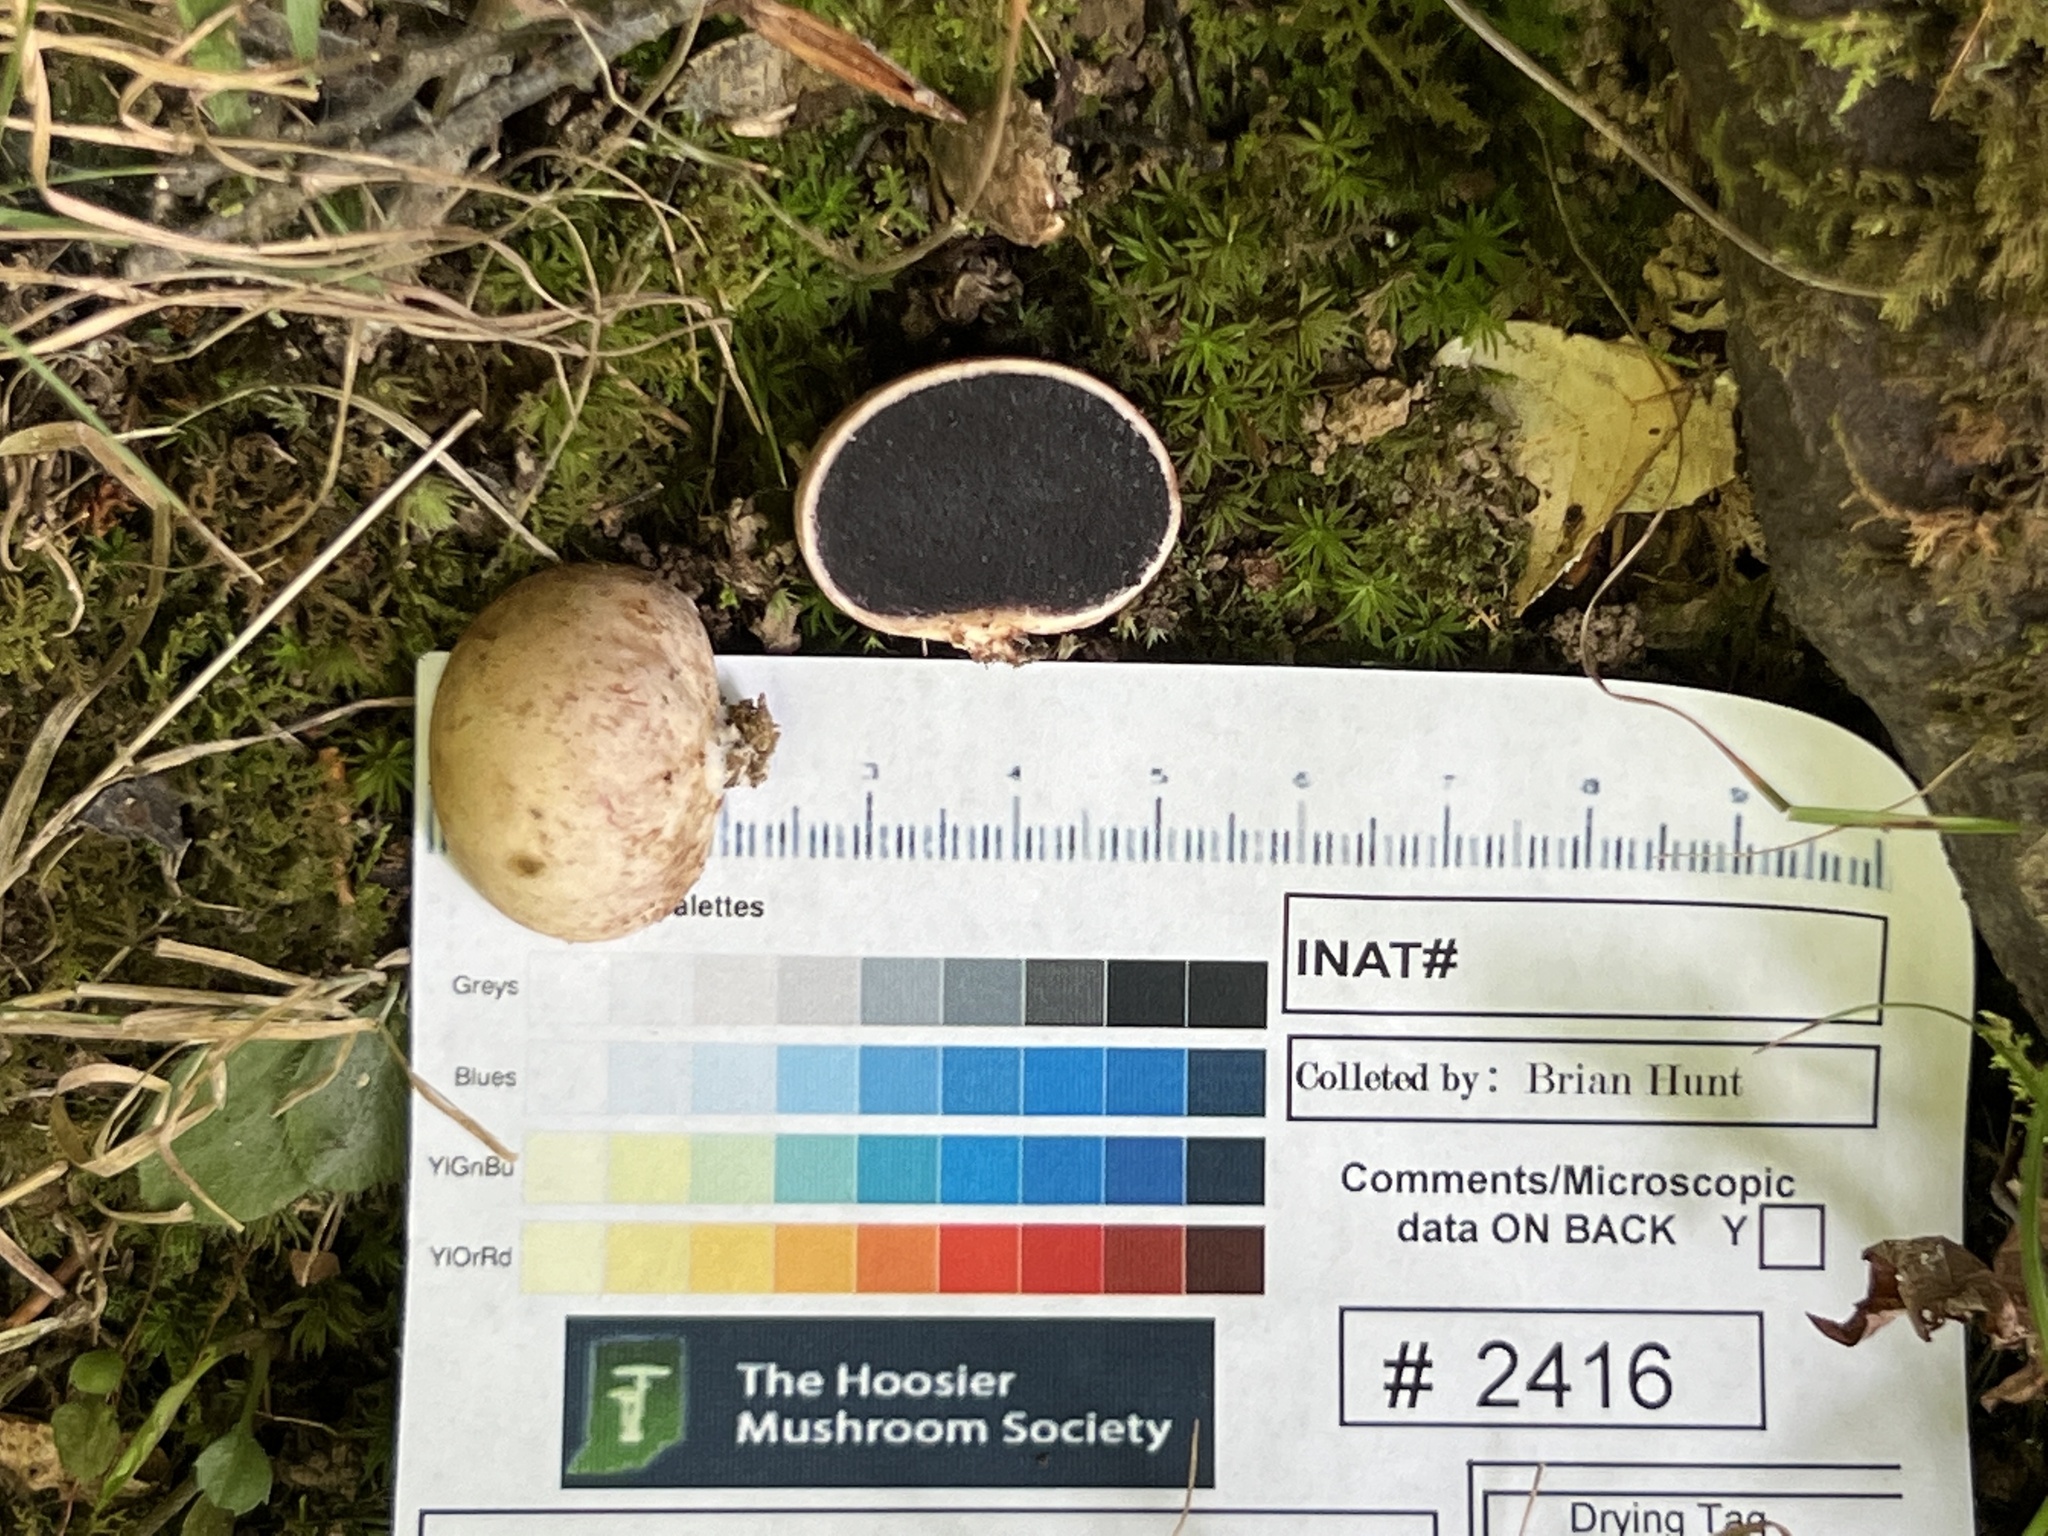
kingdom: Fungi
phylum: Basidiomycota
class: Agaricomycetes
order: Boletales
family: Sclerodermataceae
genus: Scleroderma
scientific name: Scleroderma cepa
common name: Onion earthball
